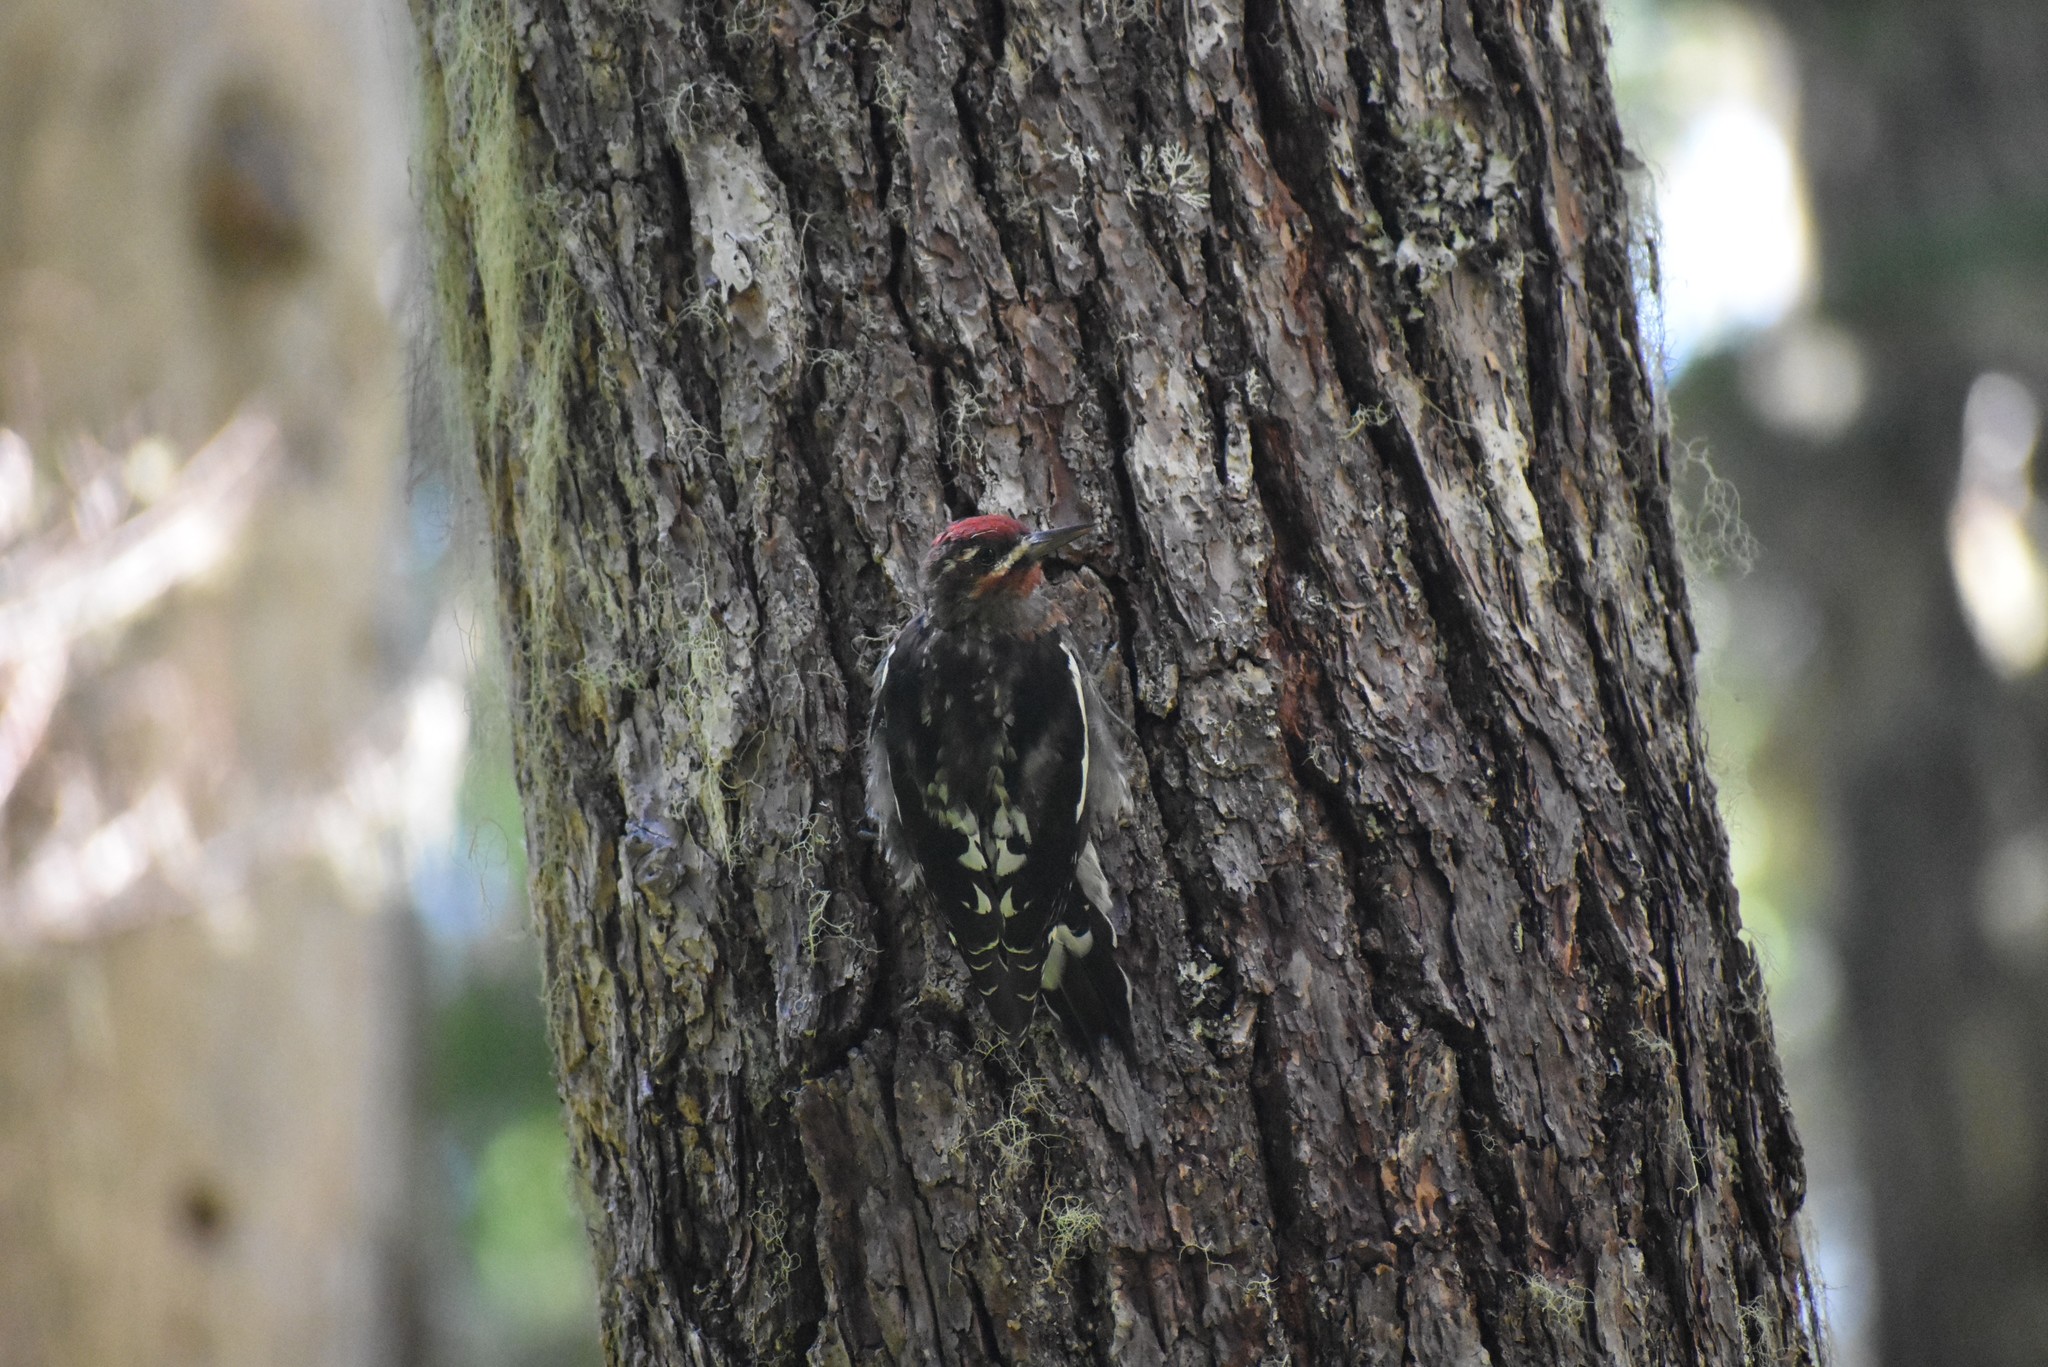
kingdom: Animalia
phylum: Chordata
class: Aves
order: Piciformes
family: Picidae
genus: Sphyrapicus
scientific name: Sphyrapicus ruber
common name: Red-breasted sapsucker
